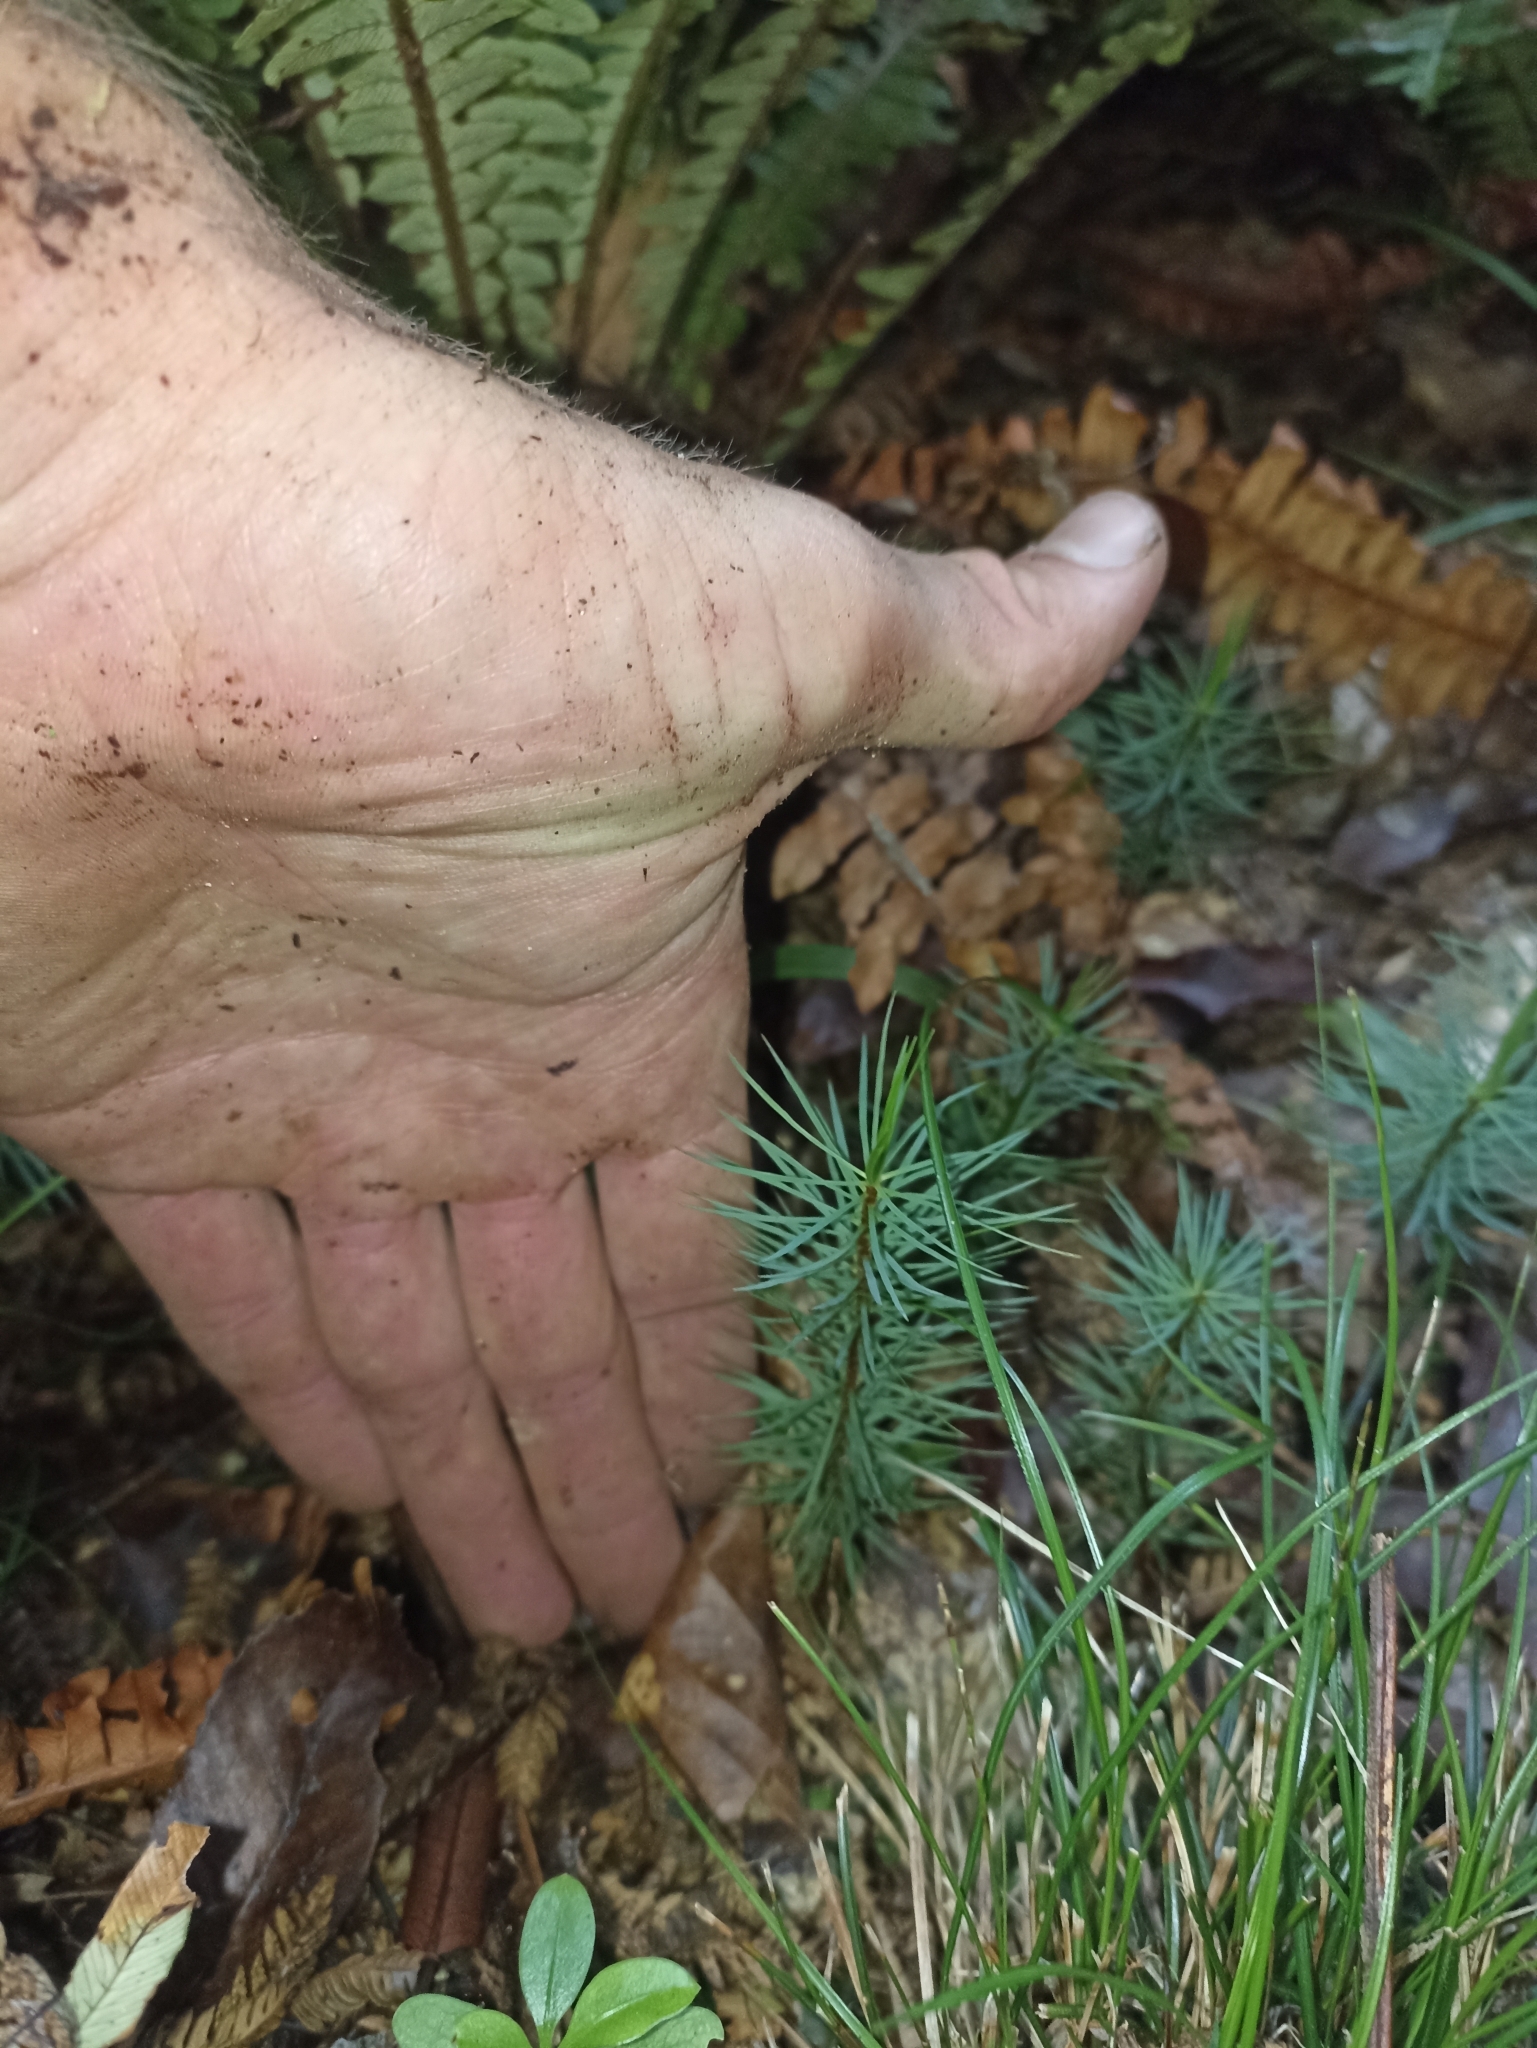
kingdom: Plantae
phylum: Bryophyta
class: Polytrichopsida
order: Polytrichales
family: Polytrichaceae
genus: Dawsonia
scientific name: Dawsonia superba
